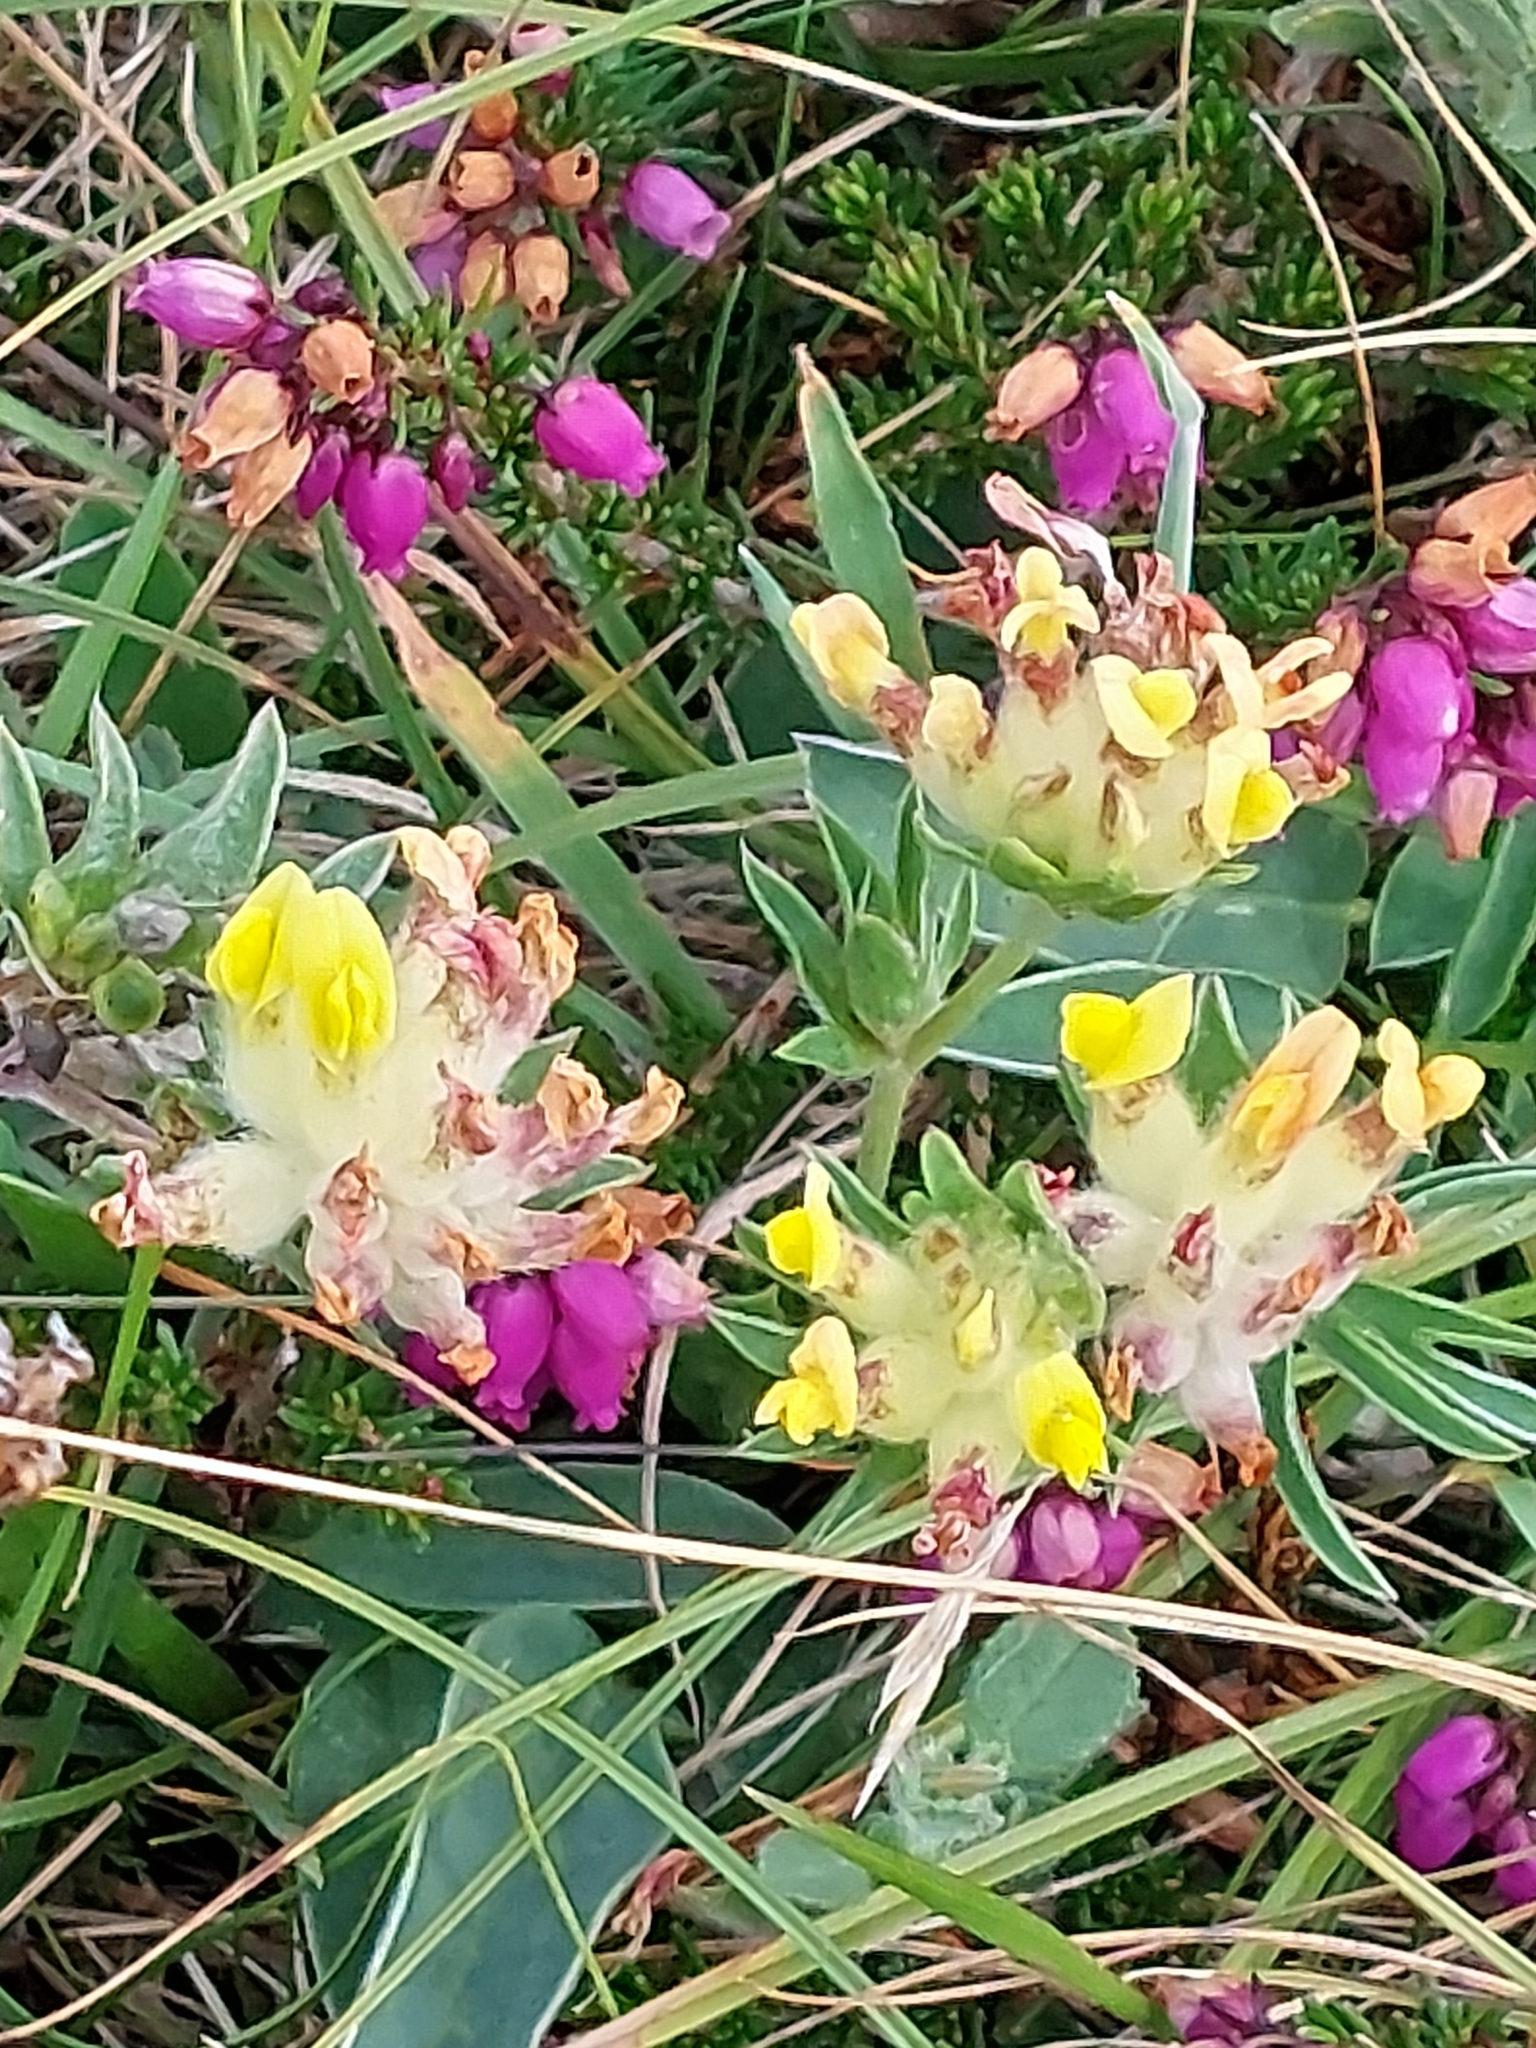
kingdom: Plantae
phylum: Tracheophyta
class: Magnoliopsida
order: Fabales
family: Fabaceae
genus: Anthyllis
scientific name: Anthyllis vulneraria
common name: Kidney vetch
